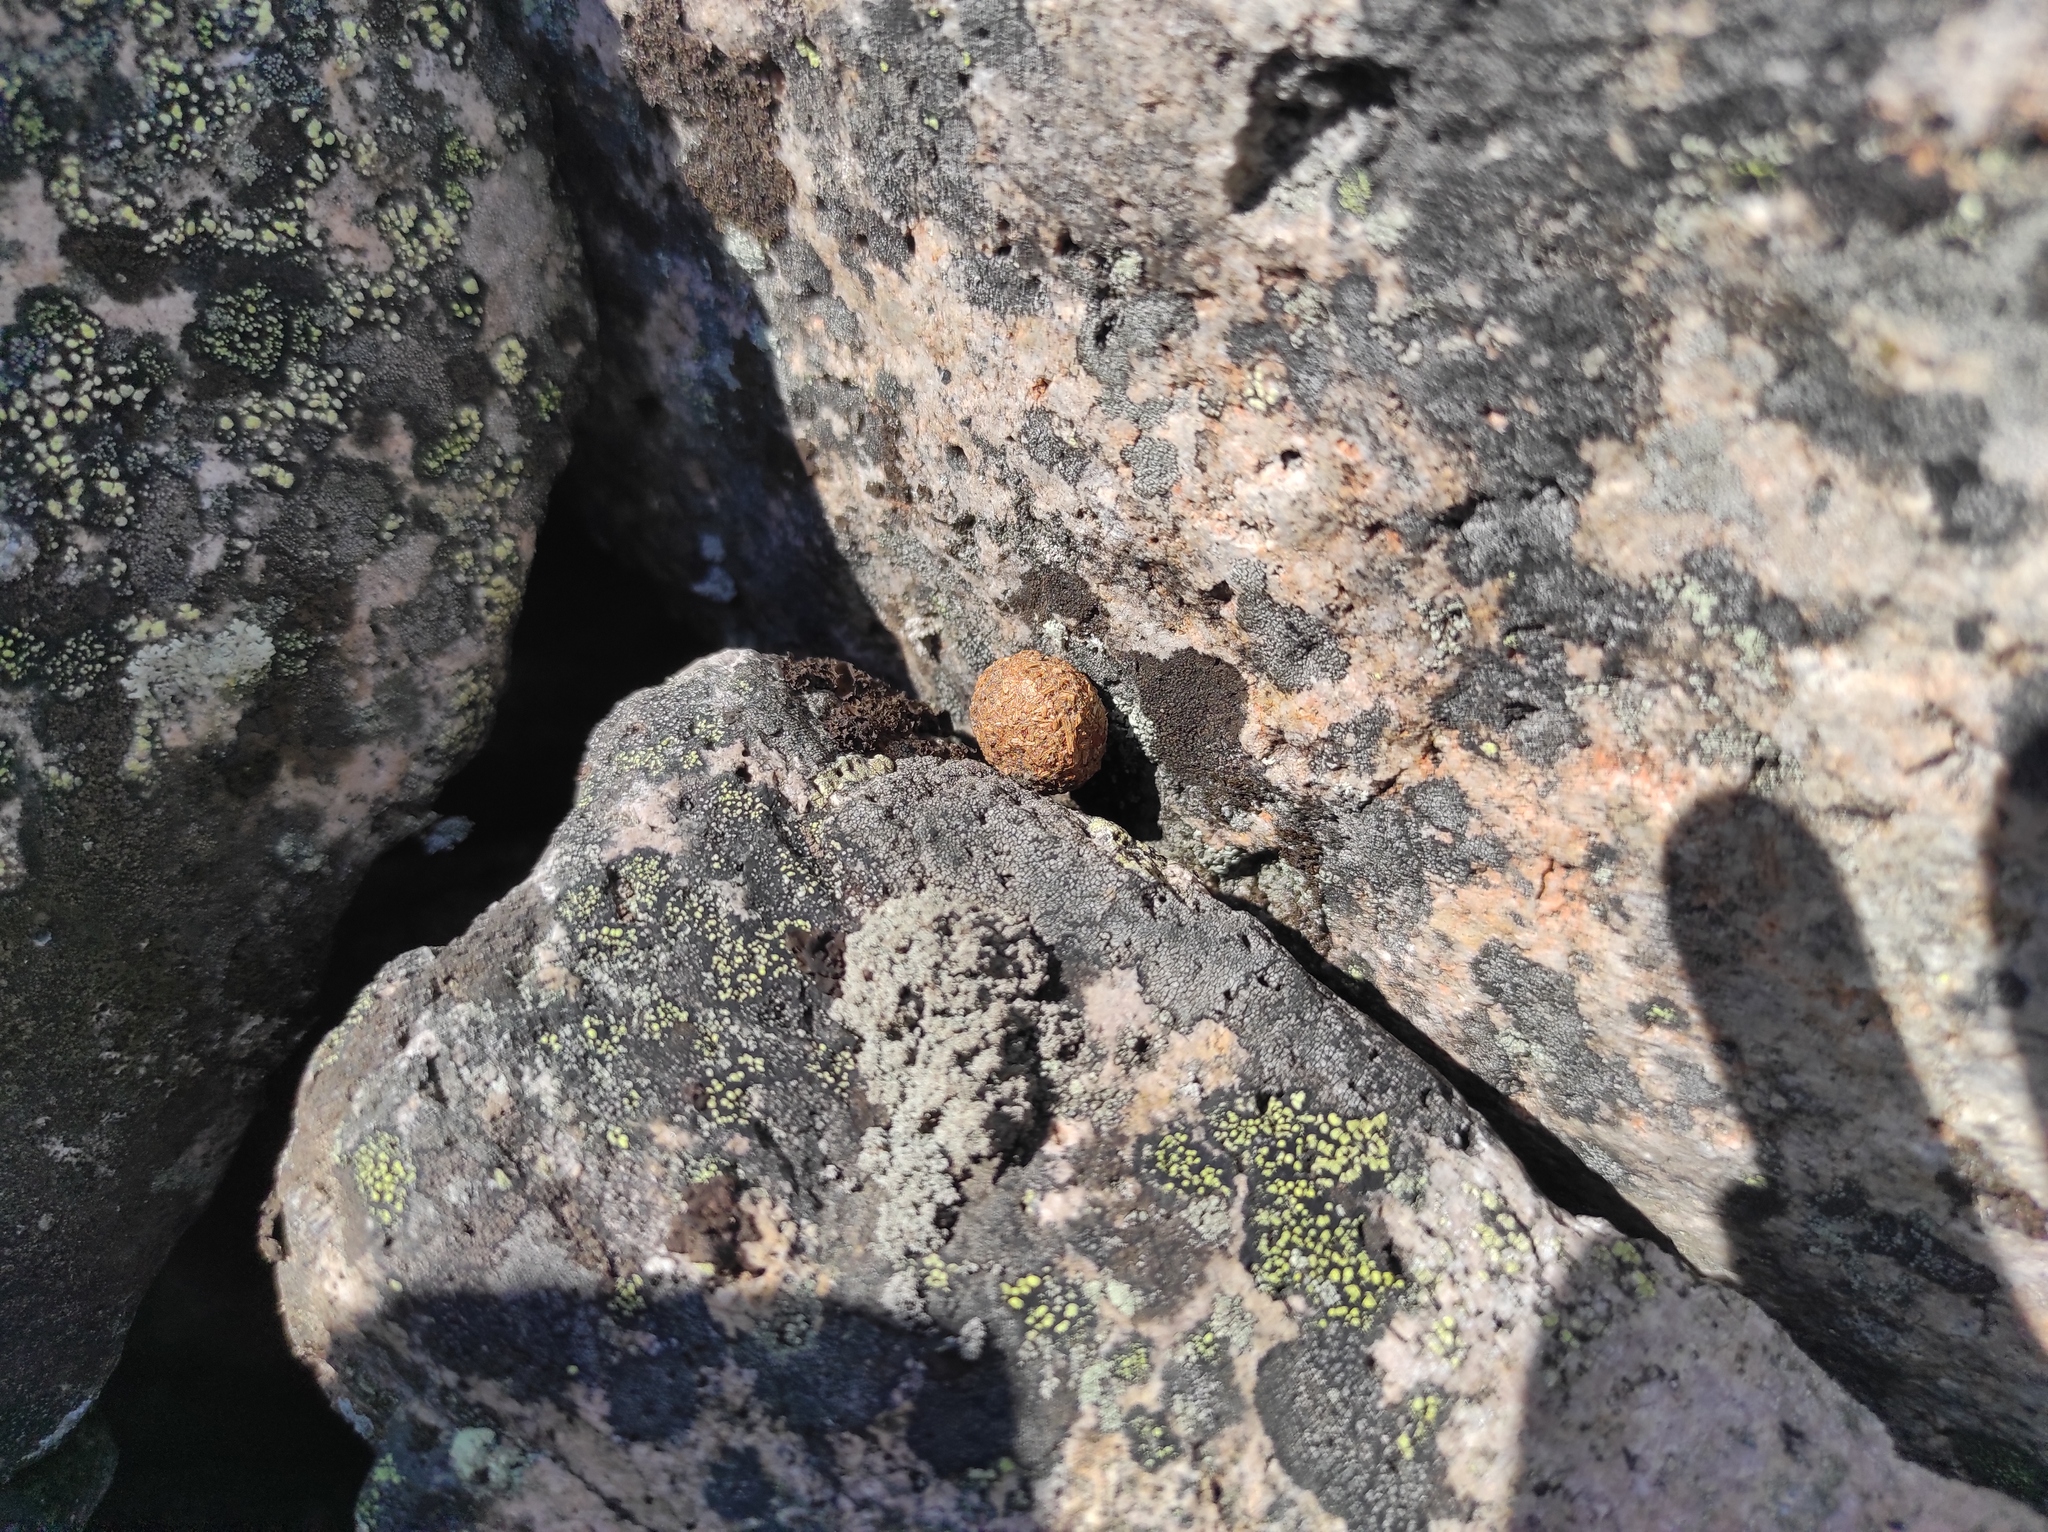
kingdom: Animalia
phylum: Chordata
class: Mammalia
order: Lagomorpha
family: Leporidae
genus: Lepus
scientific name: Lepus timidus
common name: Mountain hare
